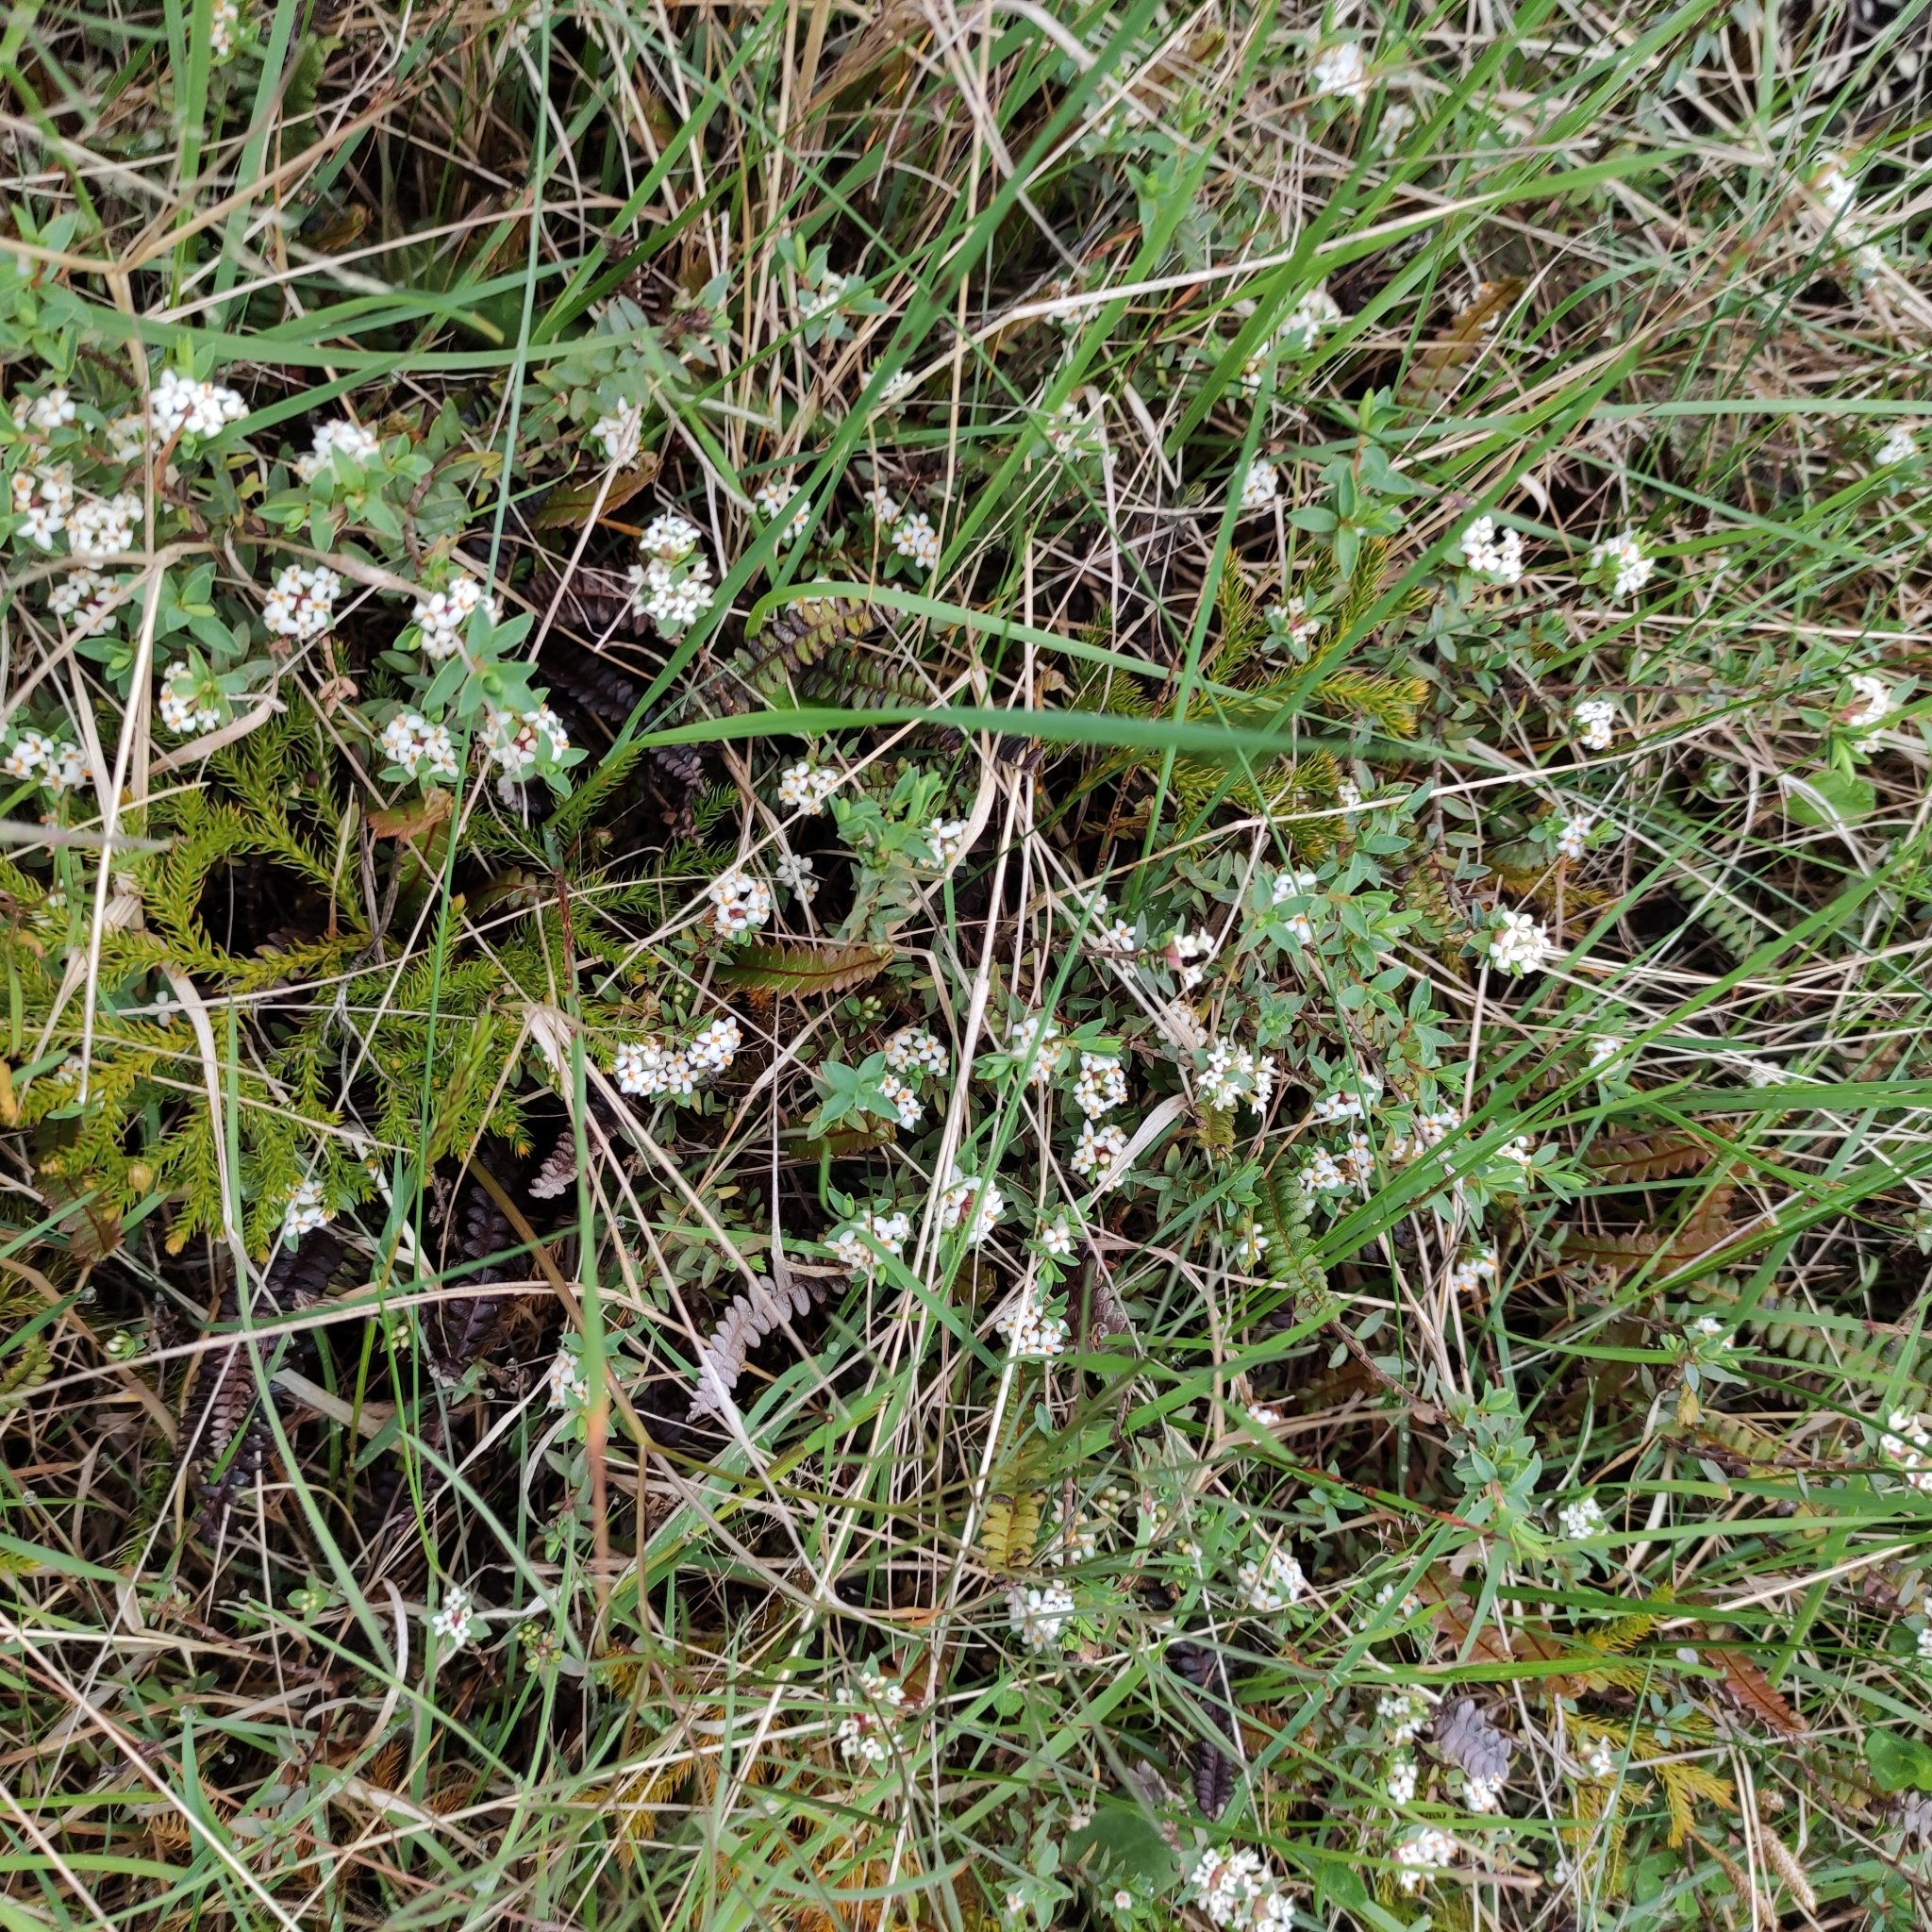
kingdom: Plantae
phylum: Tracheophyta
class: Magnoliopsida
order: Malvales
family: Thymelaeaceae
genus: Pimelea
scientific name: Pimelea oreophila
